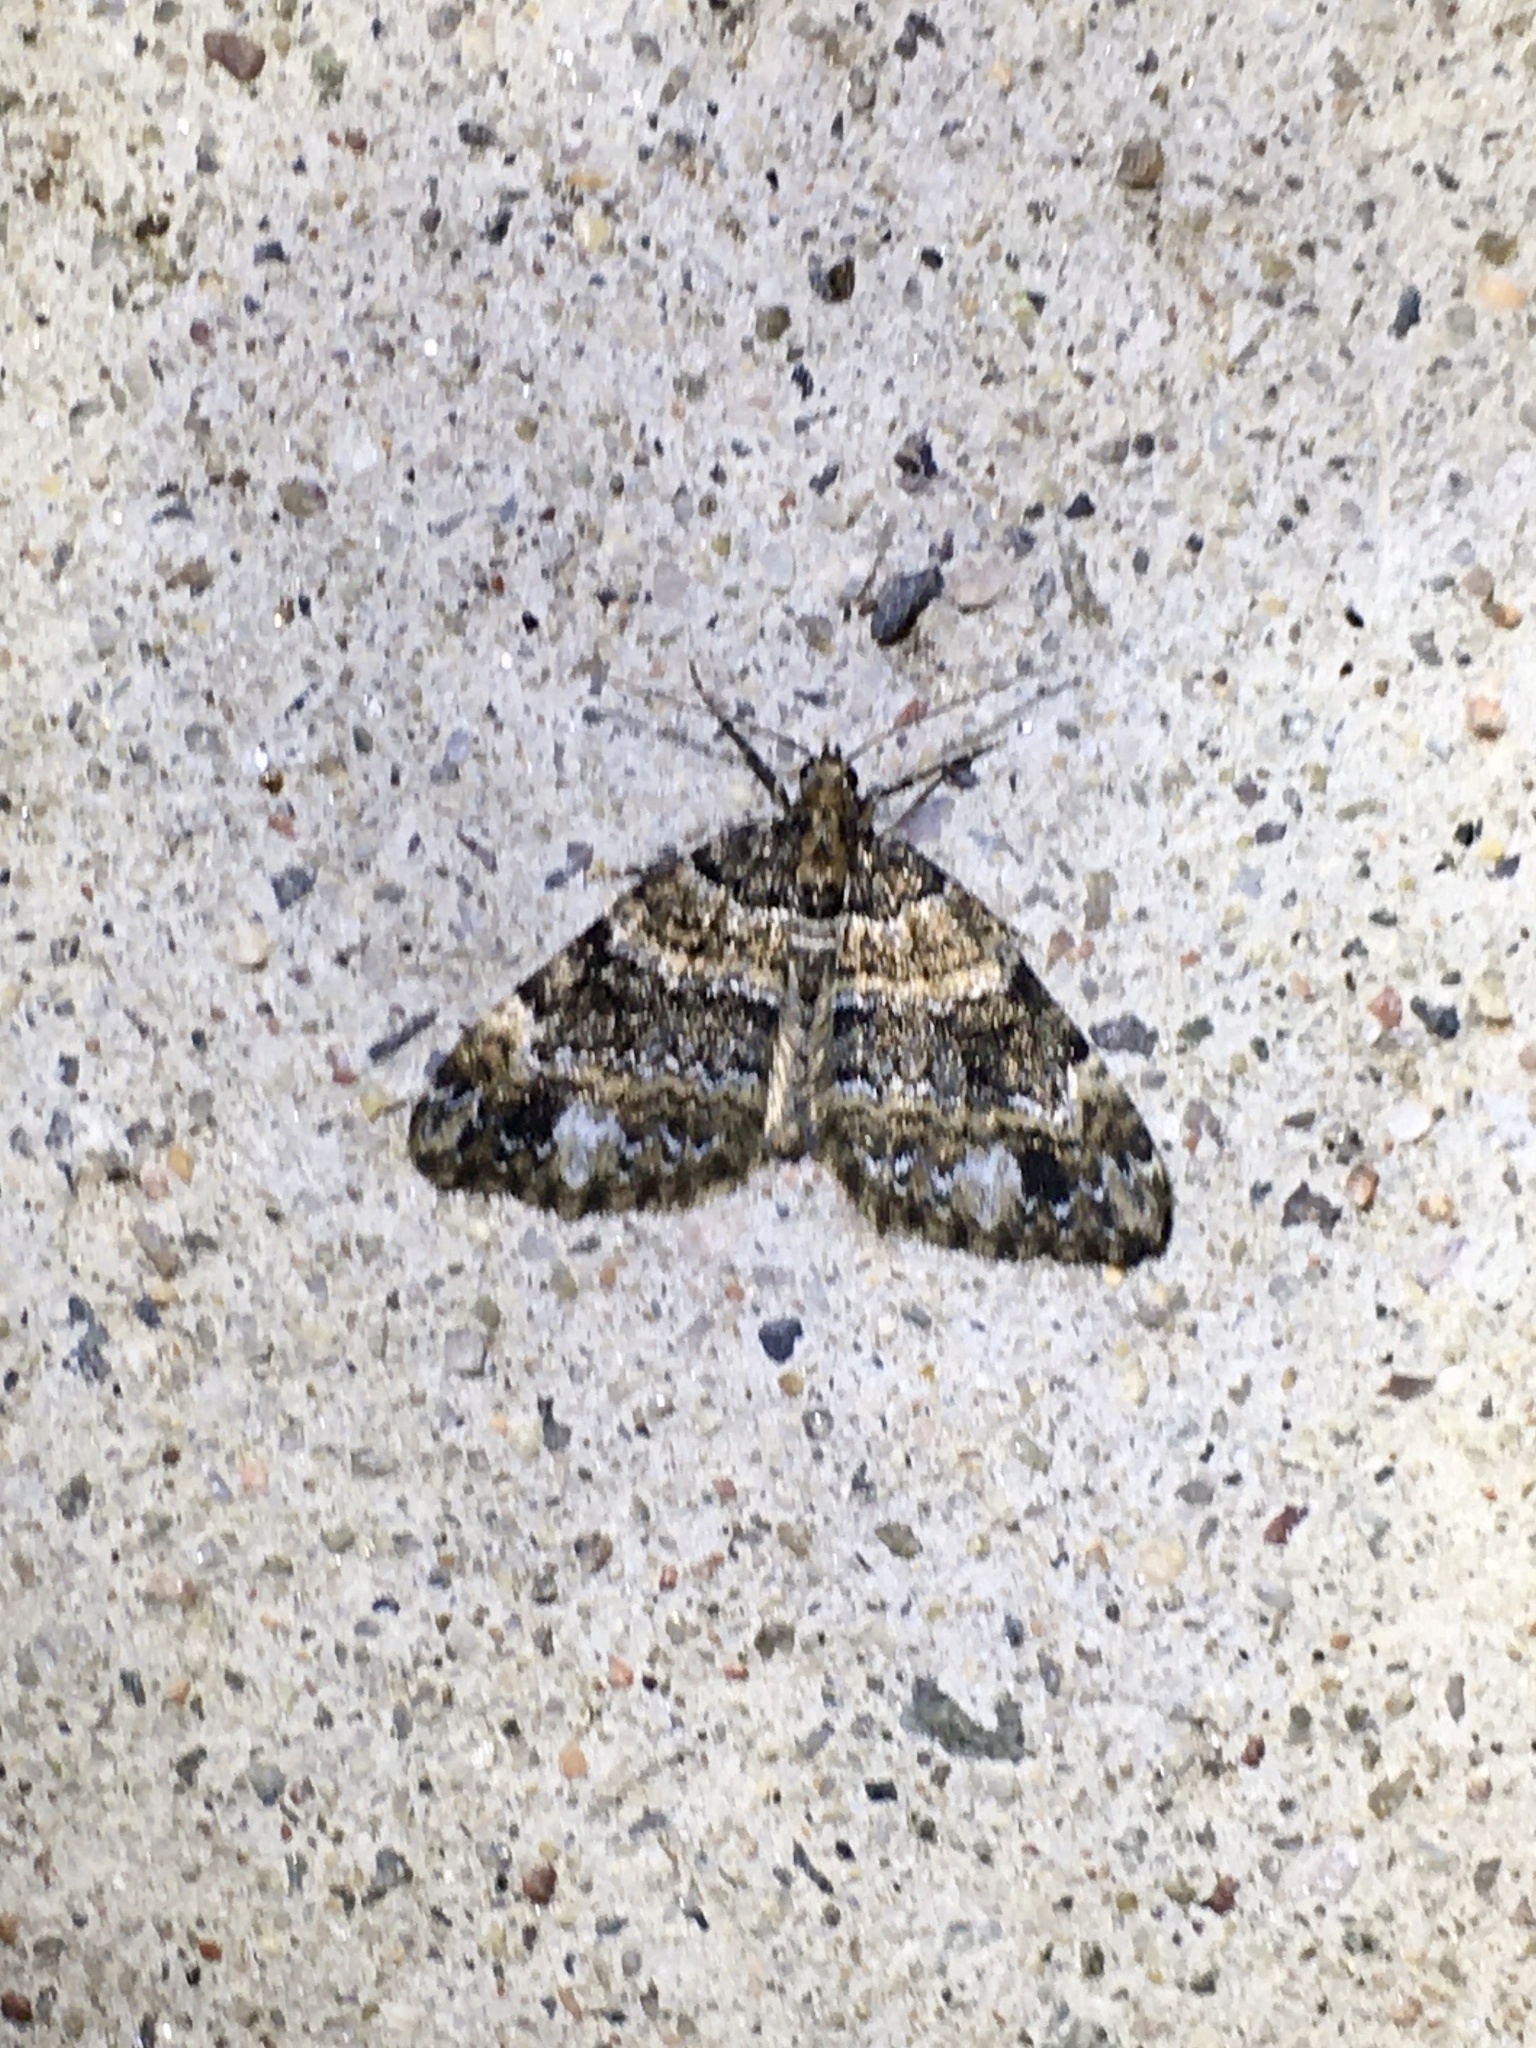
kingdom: Animalia
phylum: Arthropoda
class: Insecta
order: Lepidoptera
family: Geometridae
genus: Martania
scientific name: Martania
